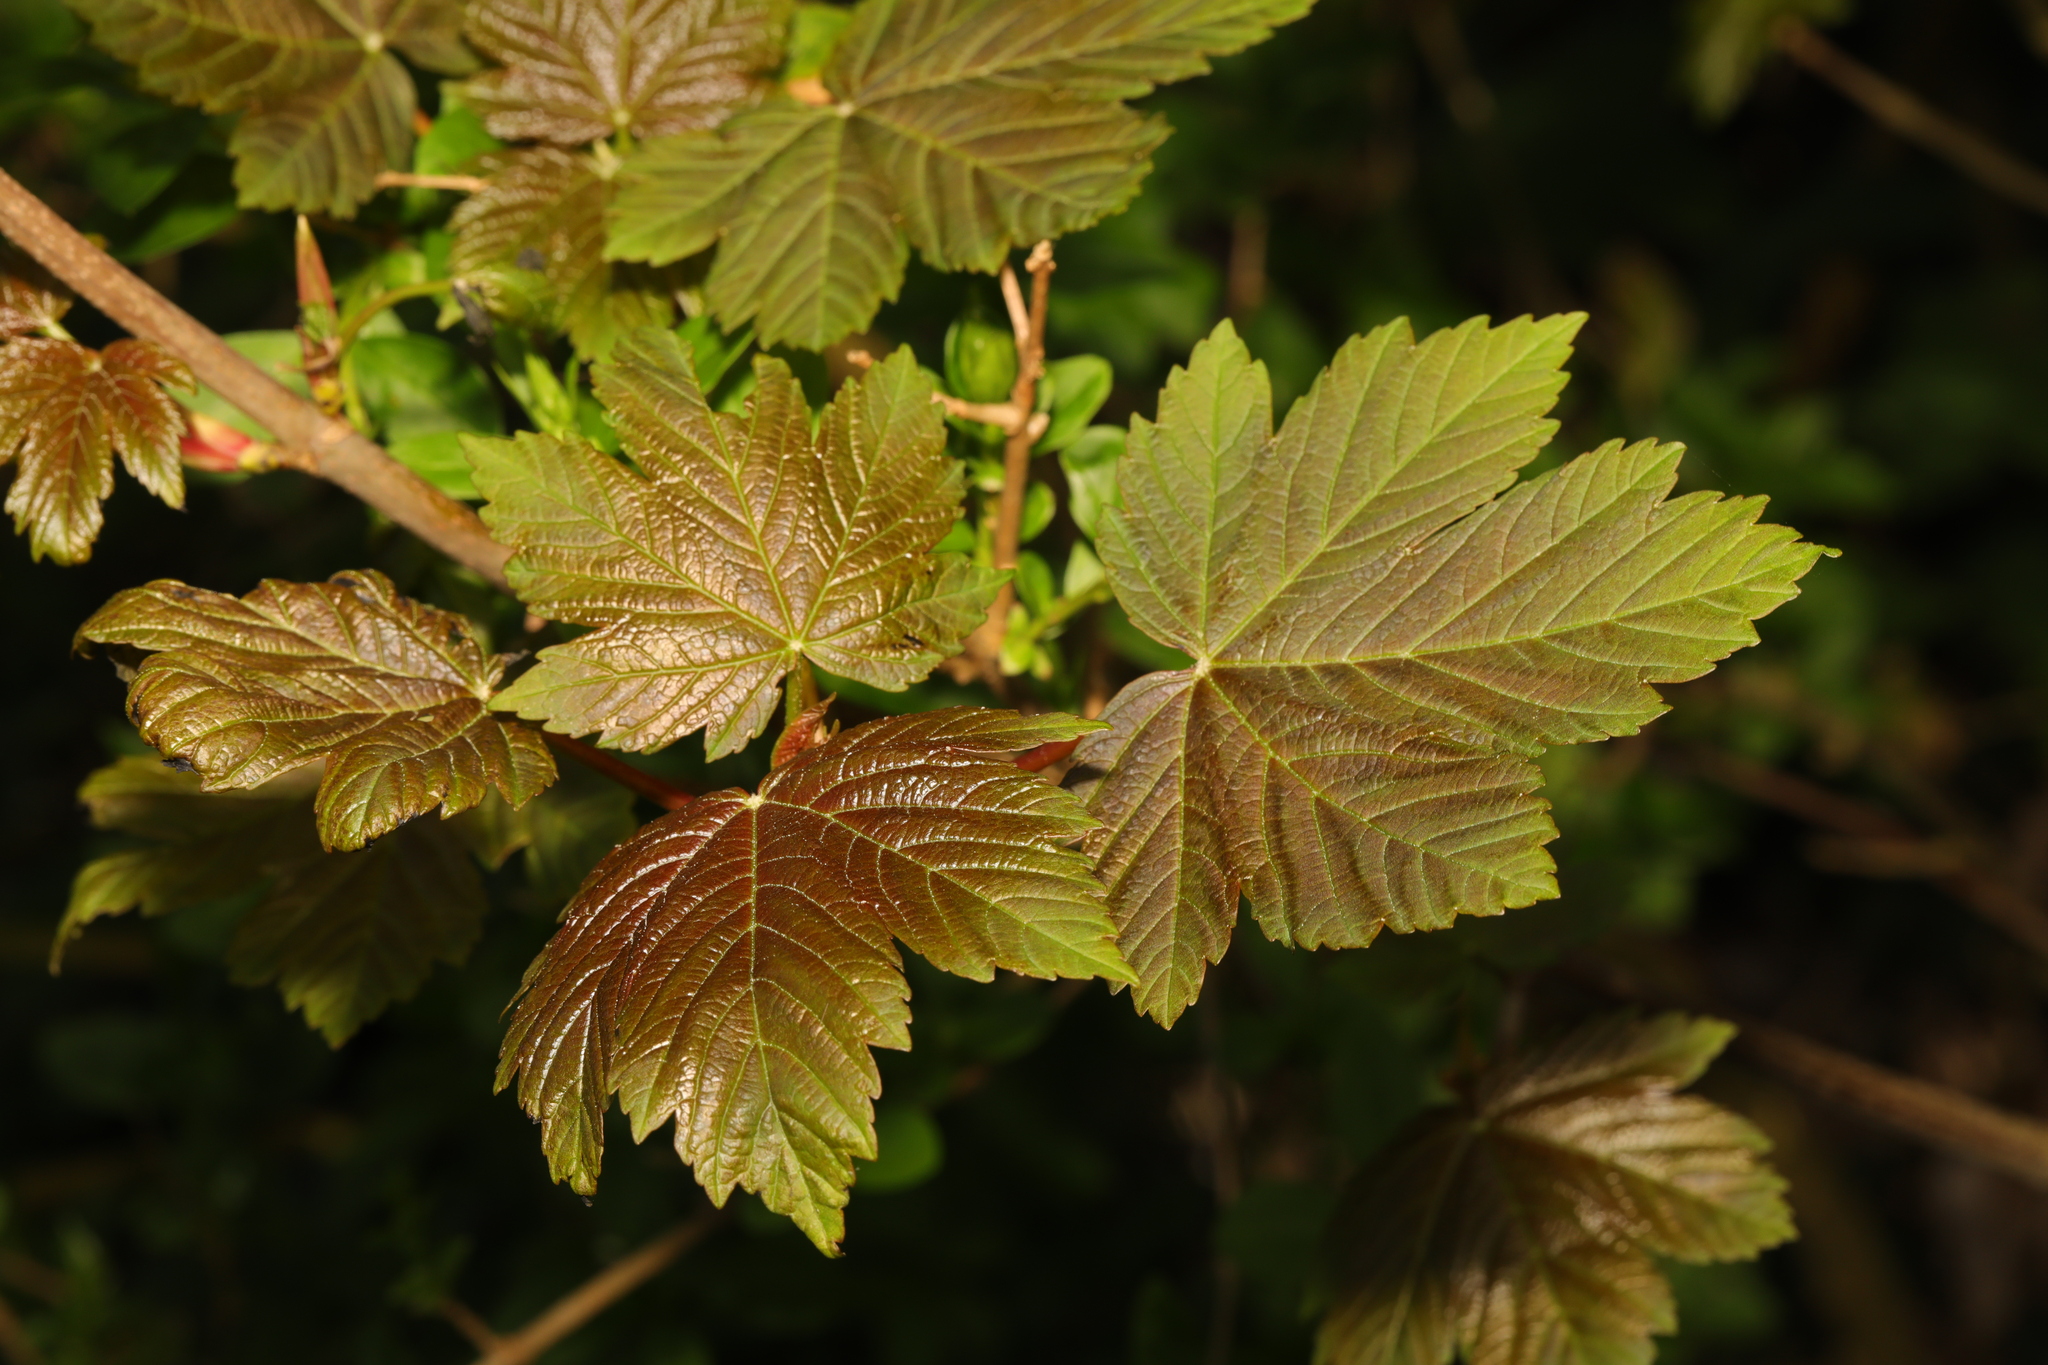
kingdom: Plantae
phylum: Tracheophyta
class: Magnoliopsida
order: Sapindales
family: Sapindaceae
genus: Acer
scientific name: Acer pseudoplatanus
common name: Sycamore
